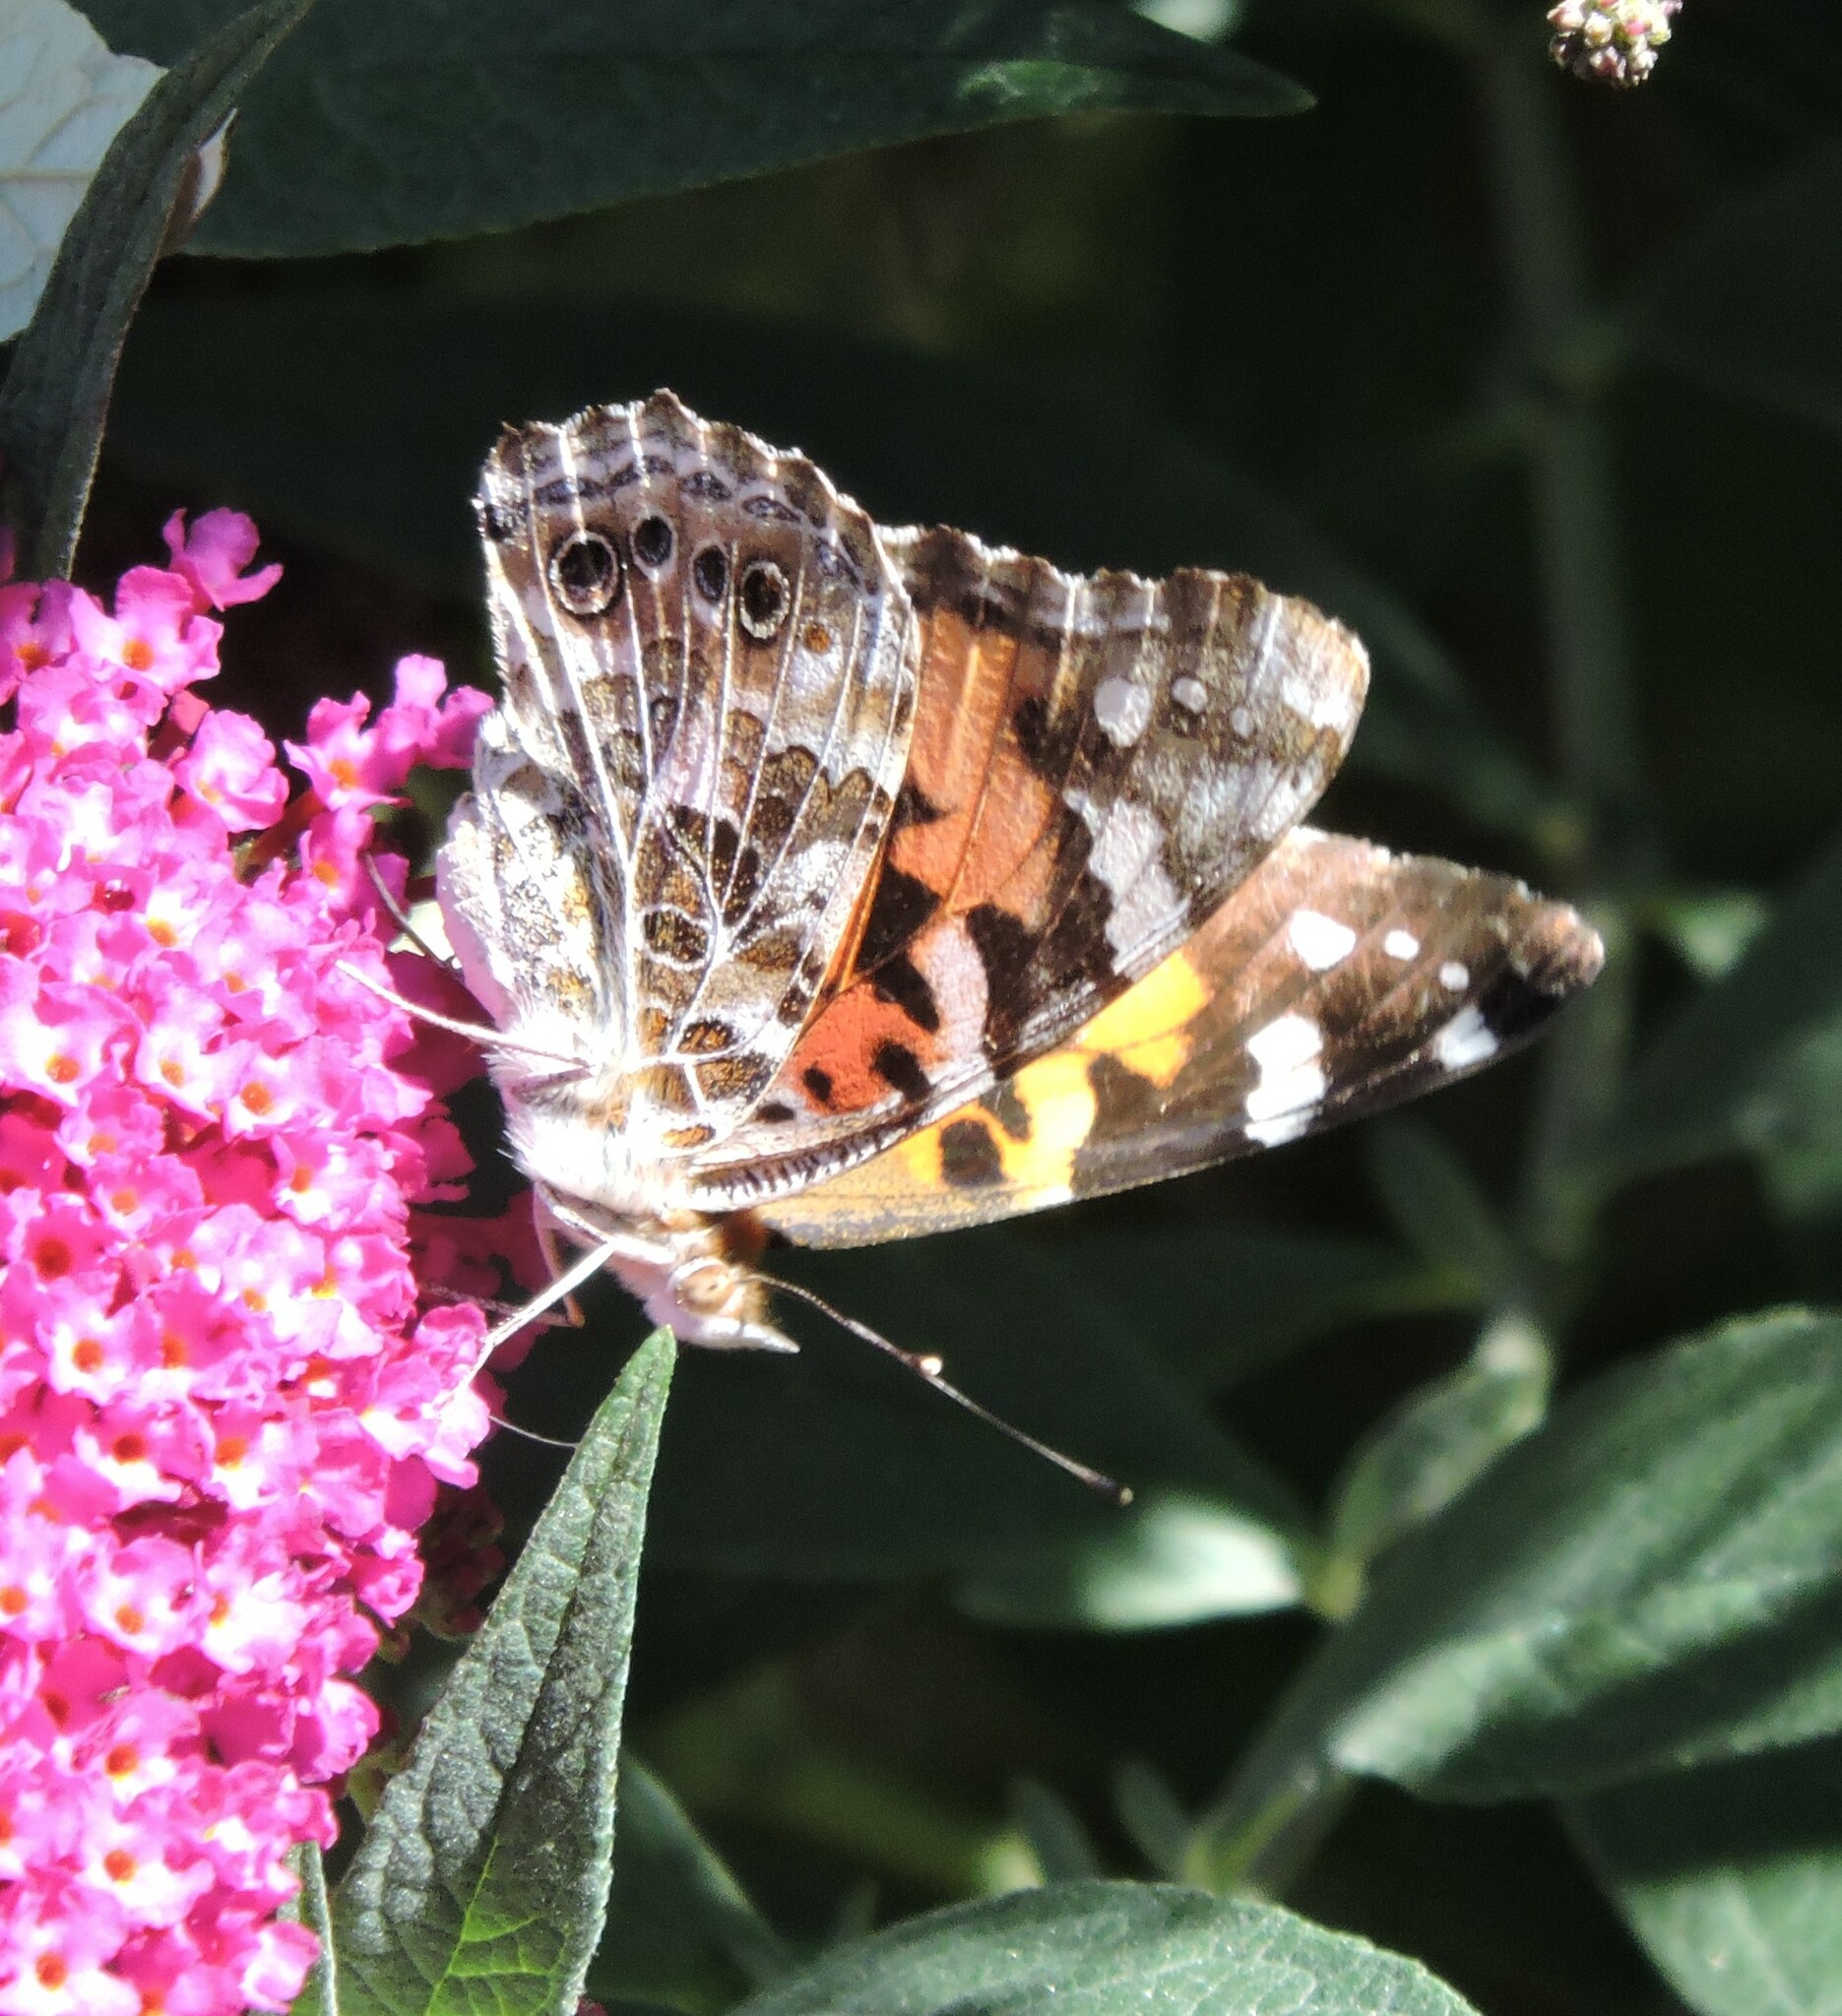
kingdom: Animalia
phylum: Arthropoda
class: Insecta
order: Lepidoptera
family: Nymphalidae
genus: Vanessa
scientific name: Vanessa cardui
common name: Painted lady
